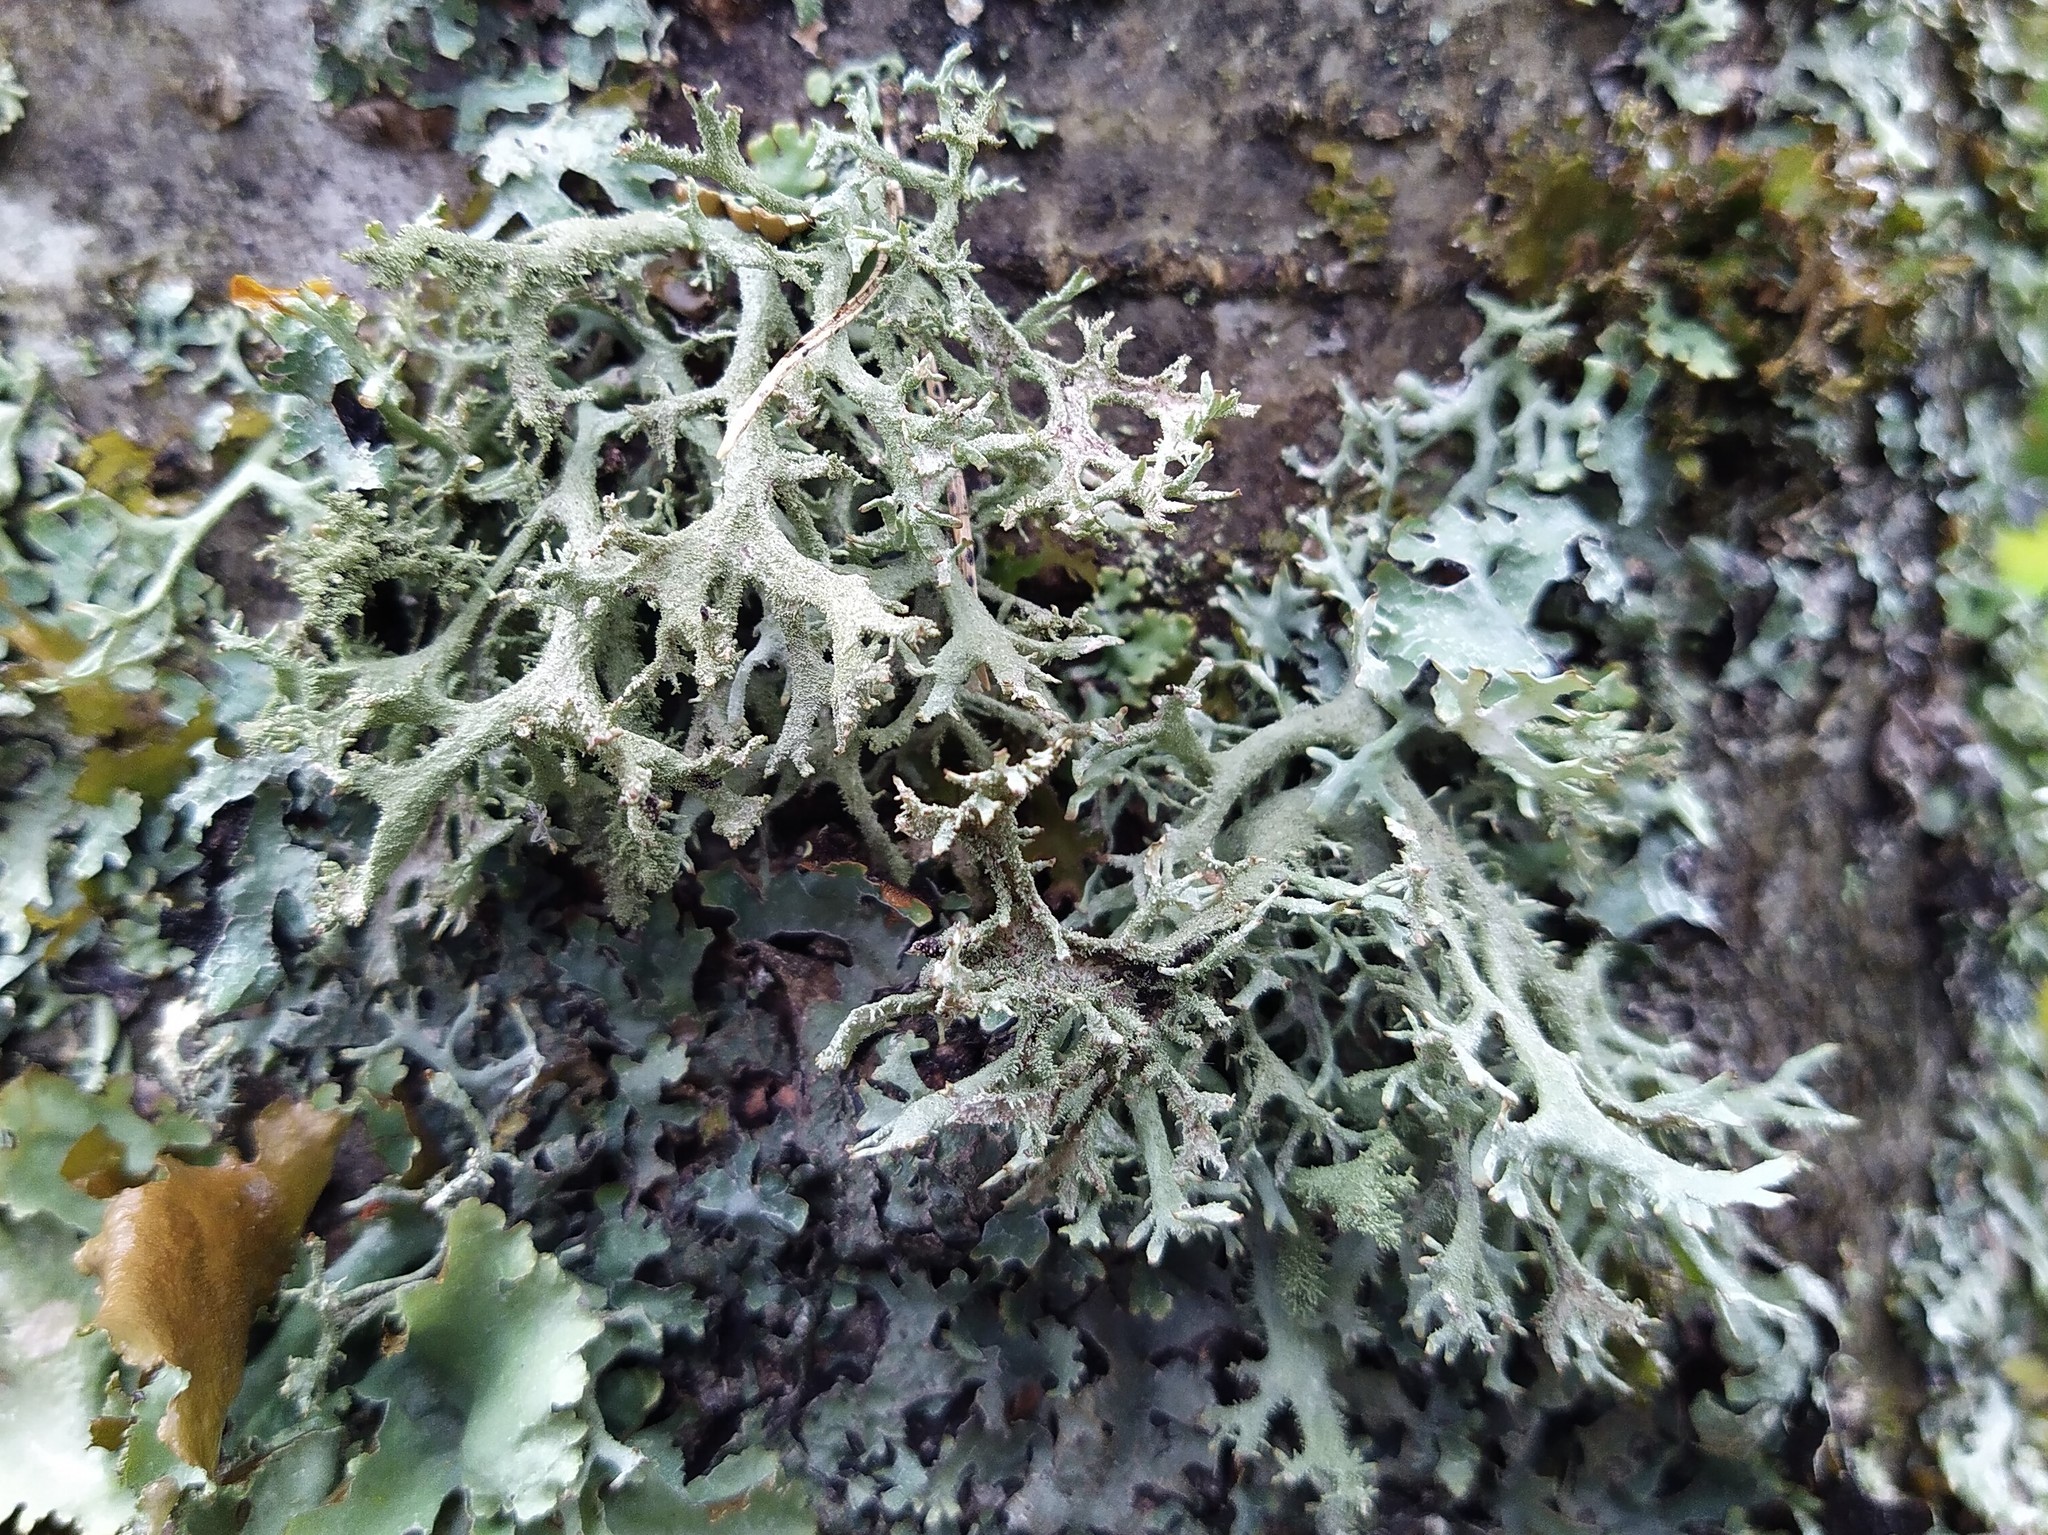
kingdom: Fungi
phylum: Ascomycota
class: Lecanoromycetes
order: Lecanorales
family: Parmeliaceae
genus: Pseudevernia
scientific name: Pseudevernia furfuracea
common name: Tree moss
